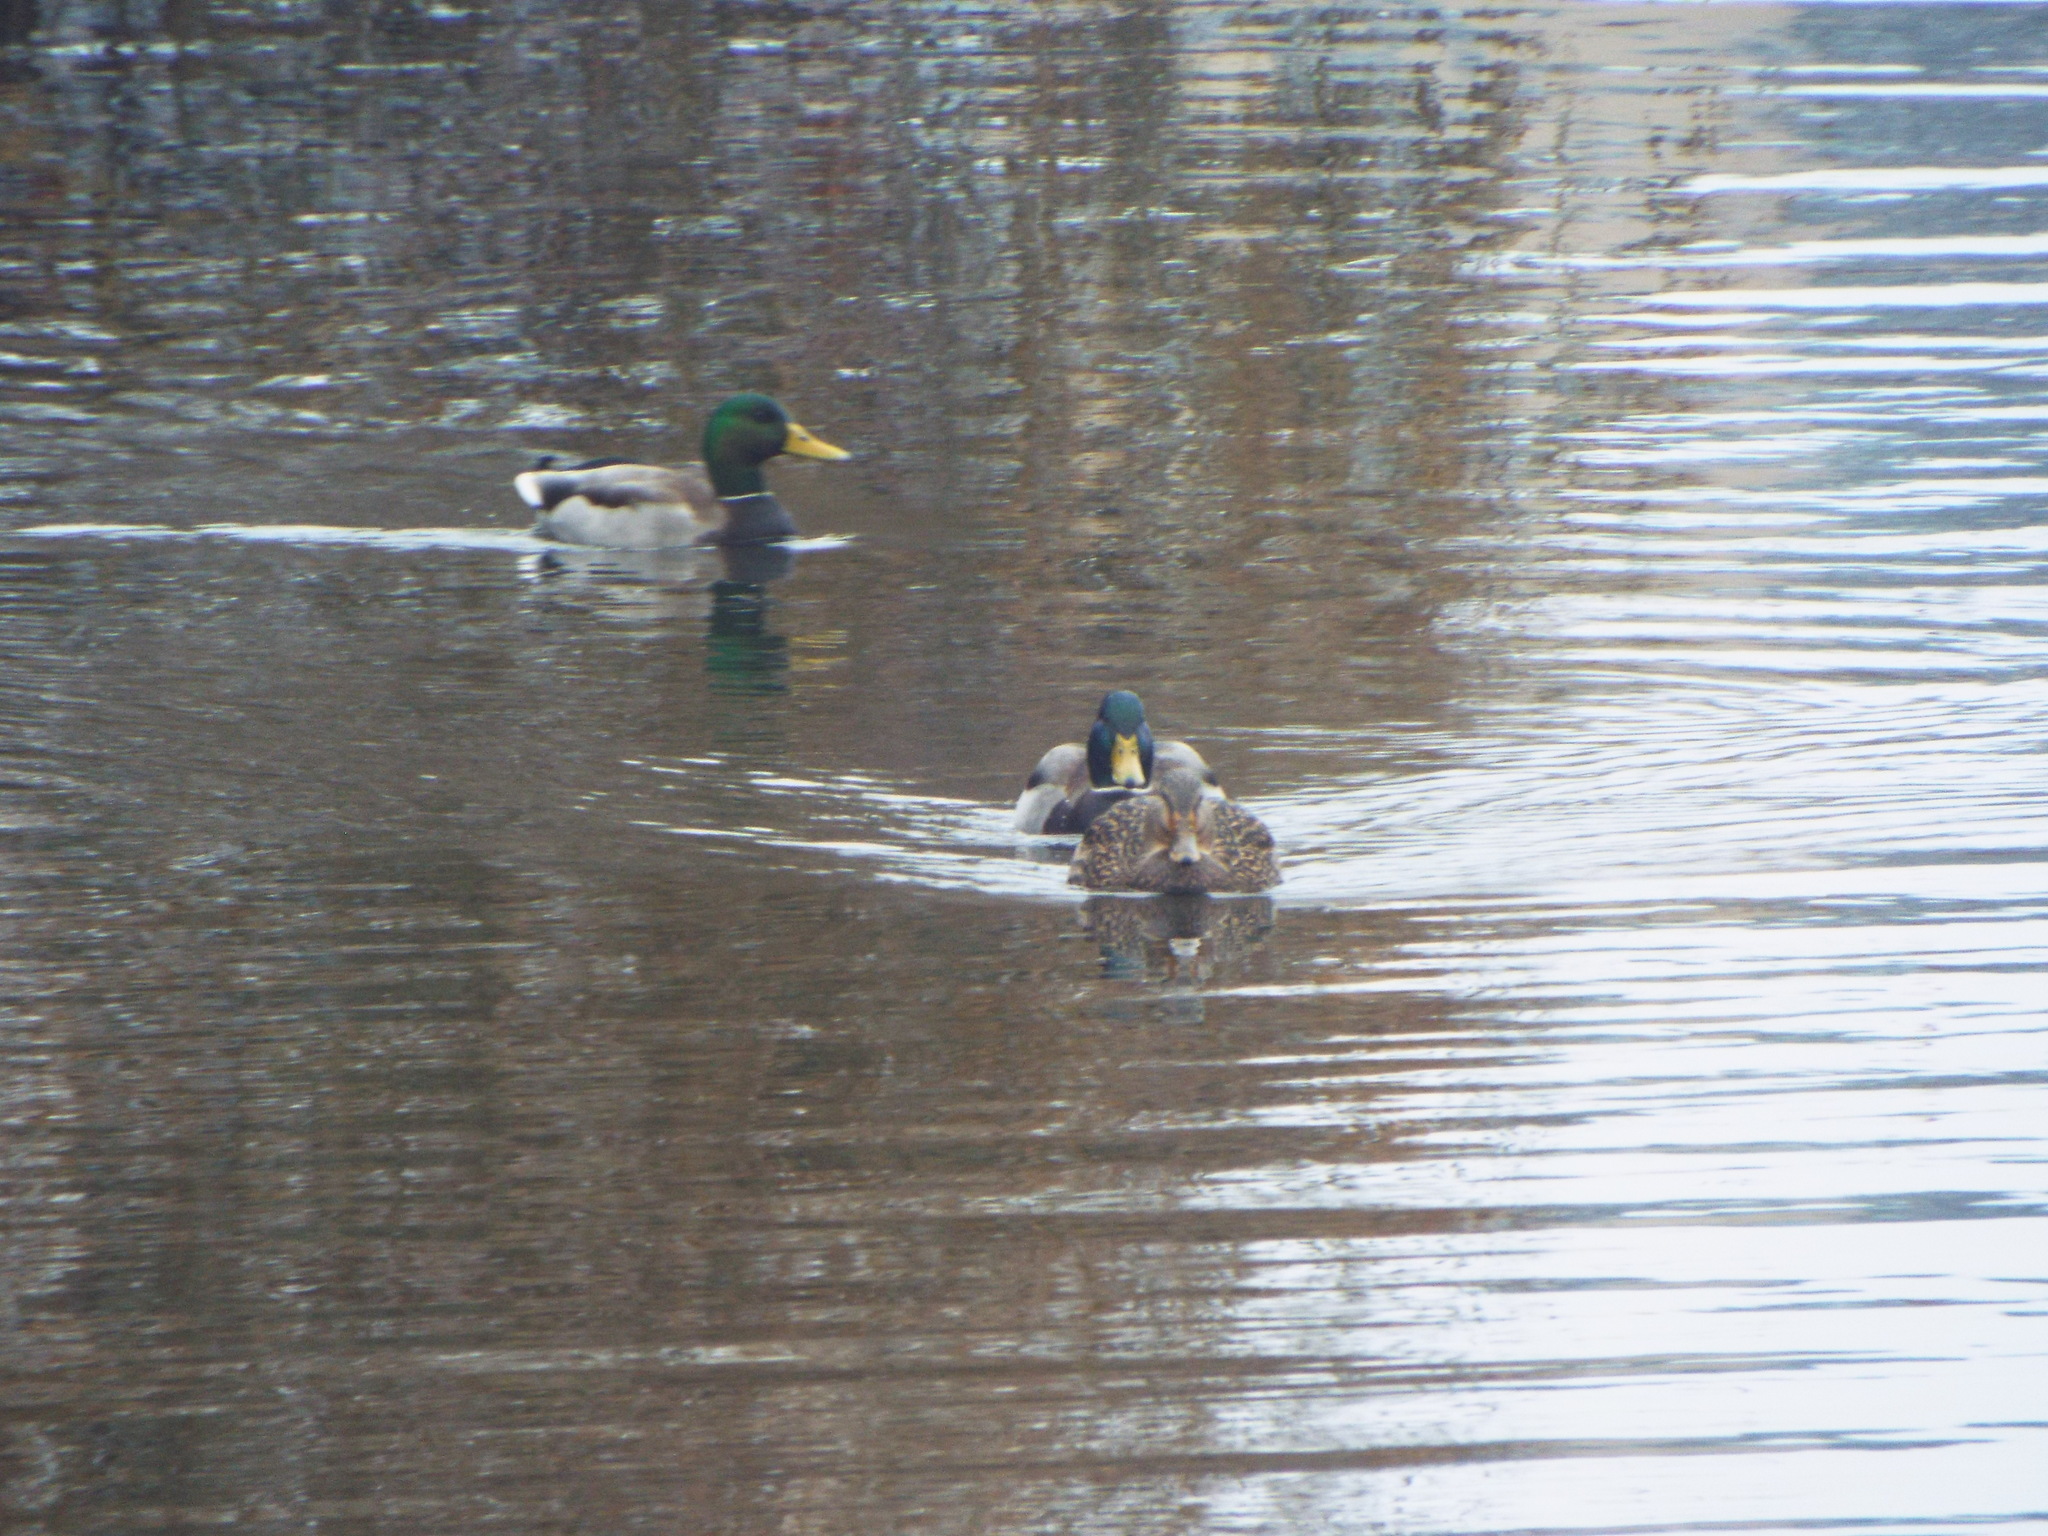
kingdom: Animalia
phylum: Chordata
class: Aves
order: Anseriformes
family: Anatidae
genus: Anas
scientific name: Anas platyrhynchos
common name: Mallard
